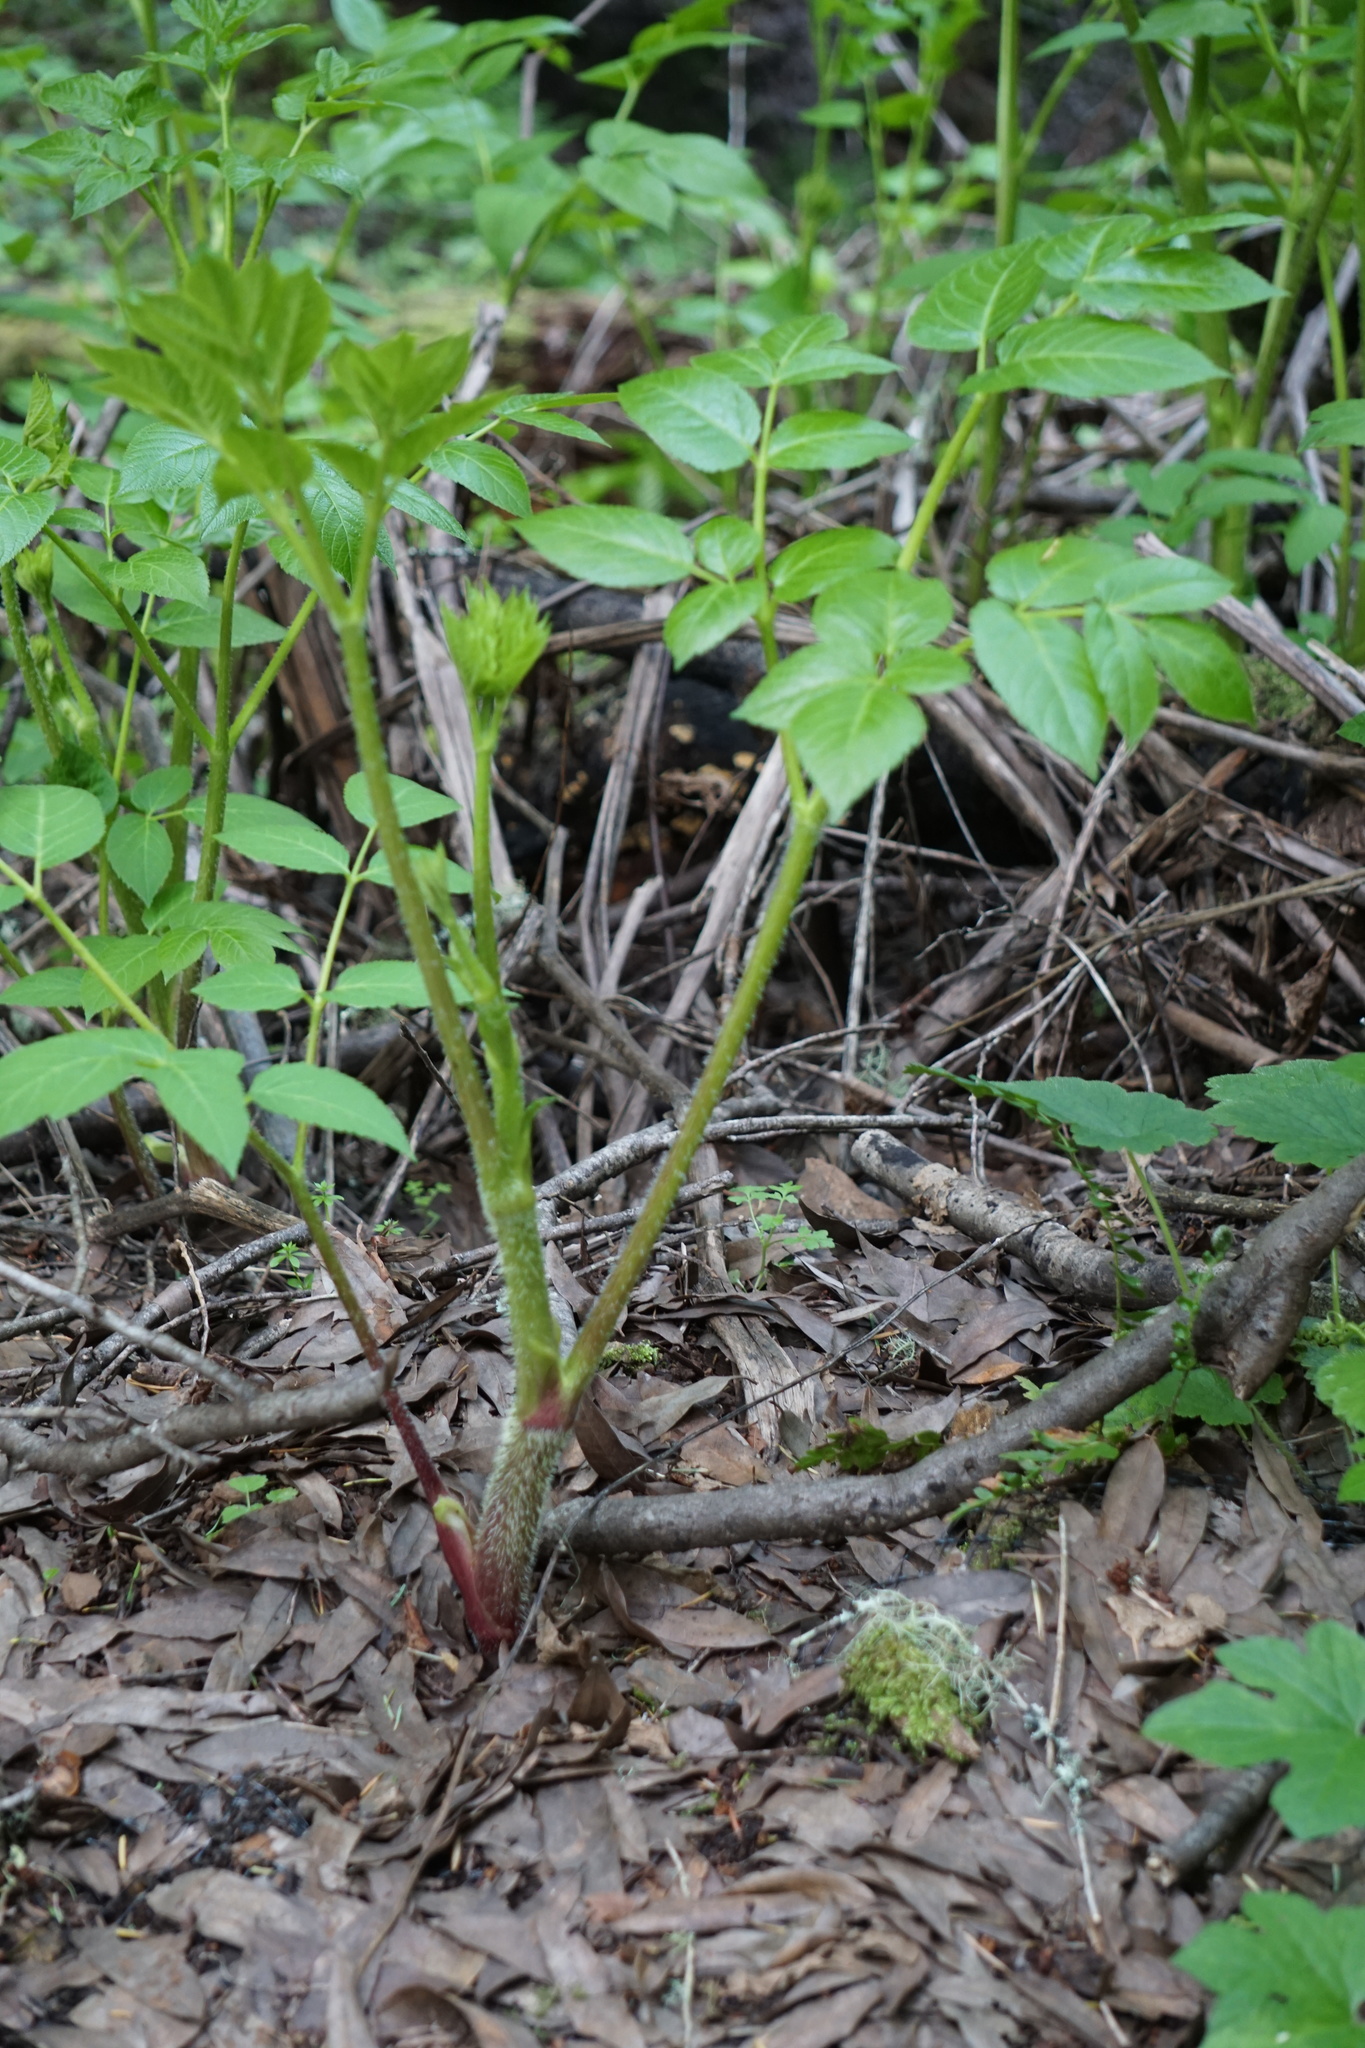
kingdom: Plantae
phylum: Tracheophyta
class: Magnoliopsida
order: Apiales
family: Araliaceae
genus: Aralia
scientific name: Aralia californica
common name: California-ginseng
